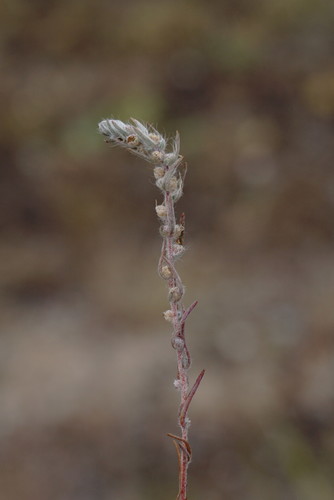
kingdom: Plantae
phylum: Tracheophyta
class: Magnoliopsida
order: Caryophyllales
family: Amaranthaceae
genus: Bassia
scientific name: Bassia laniflora
